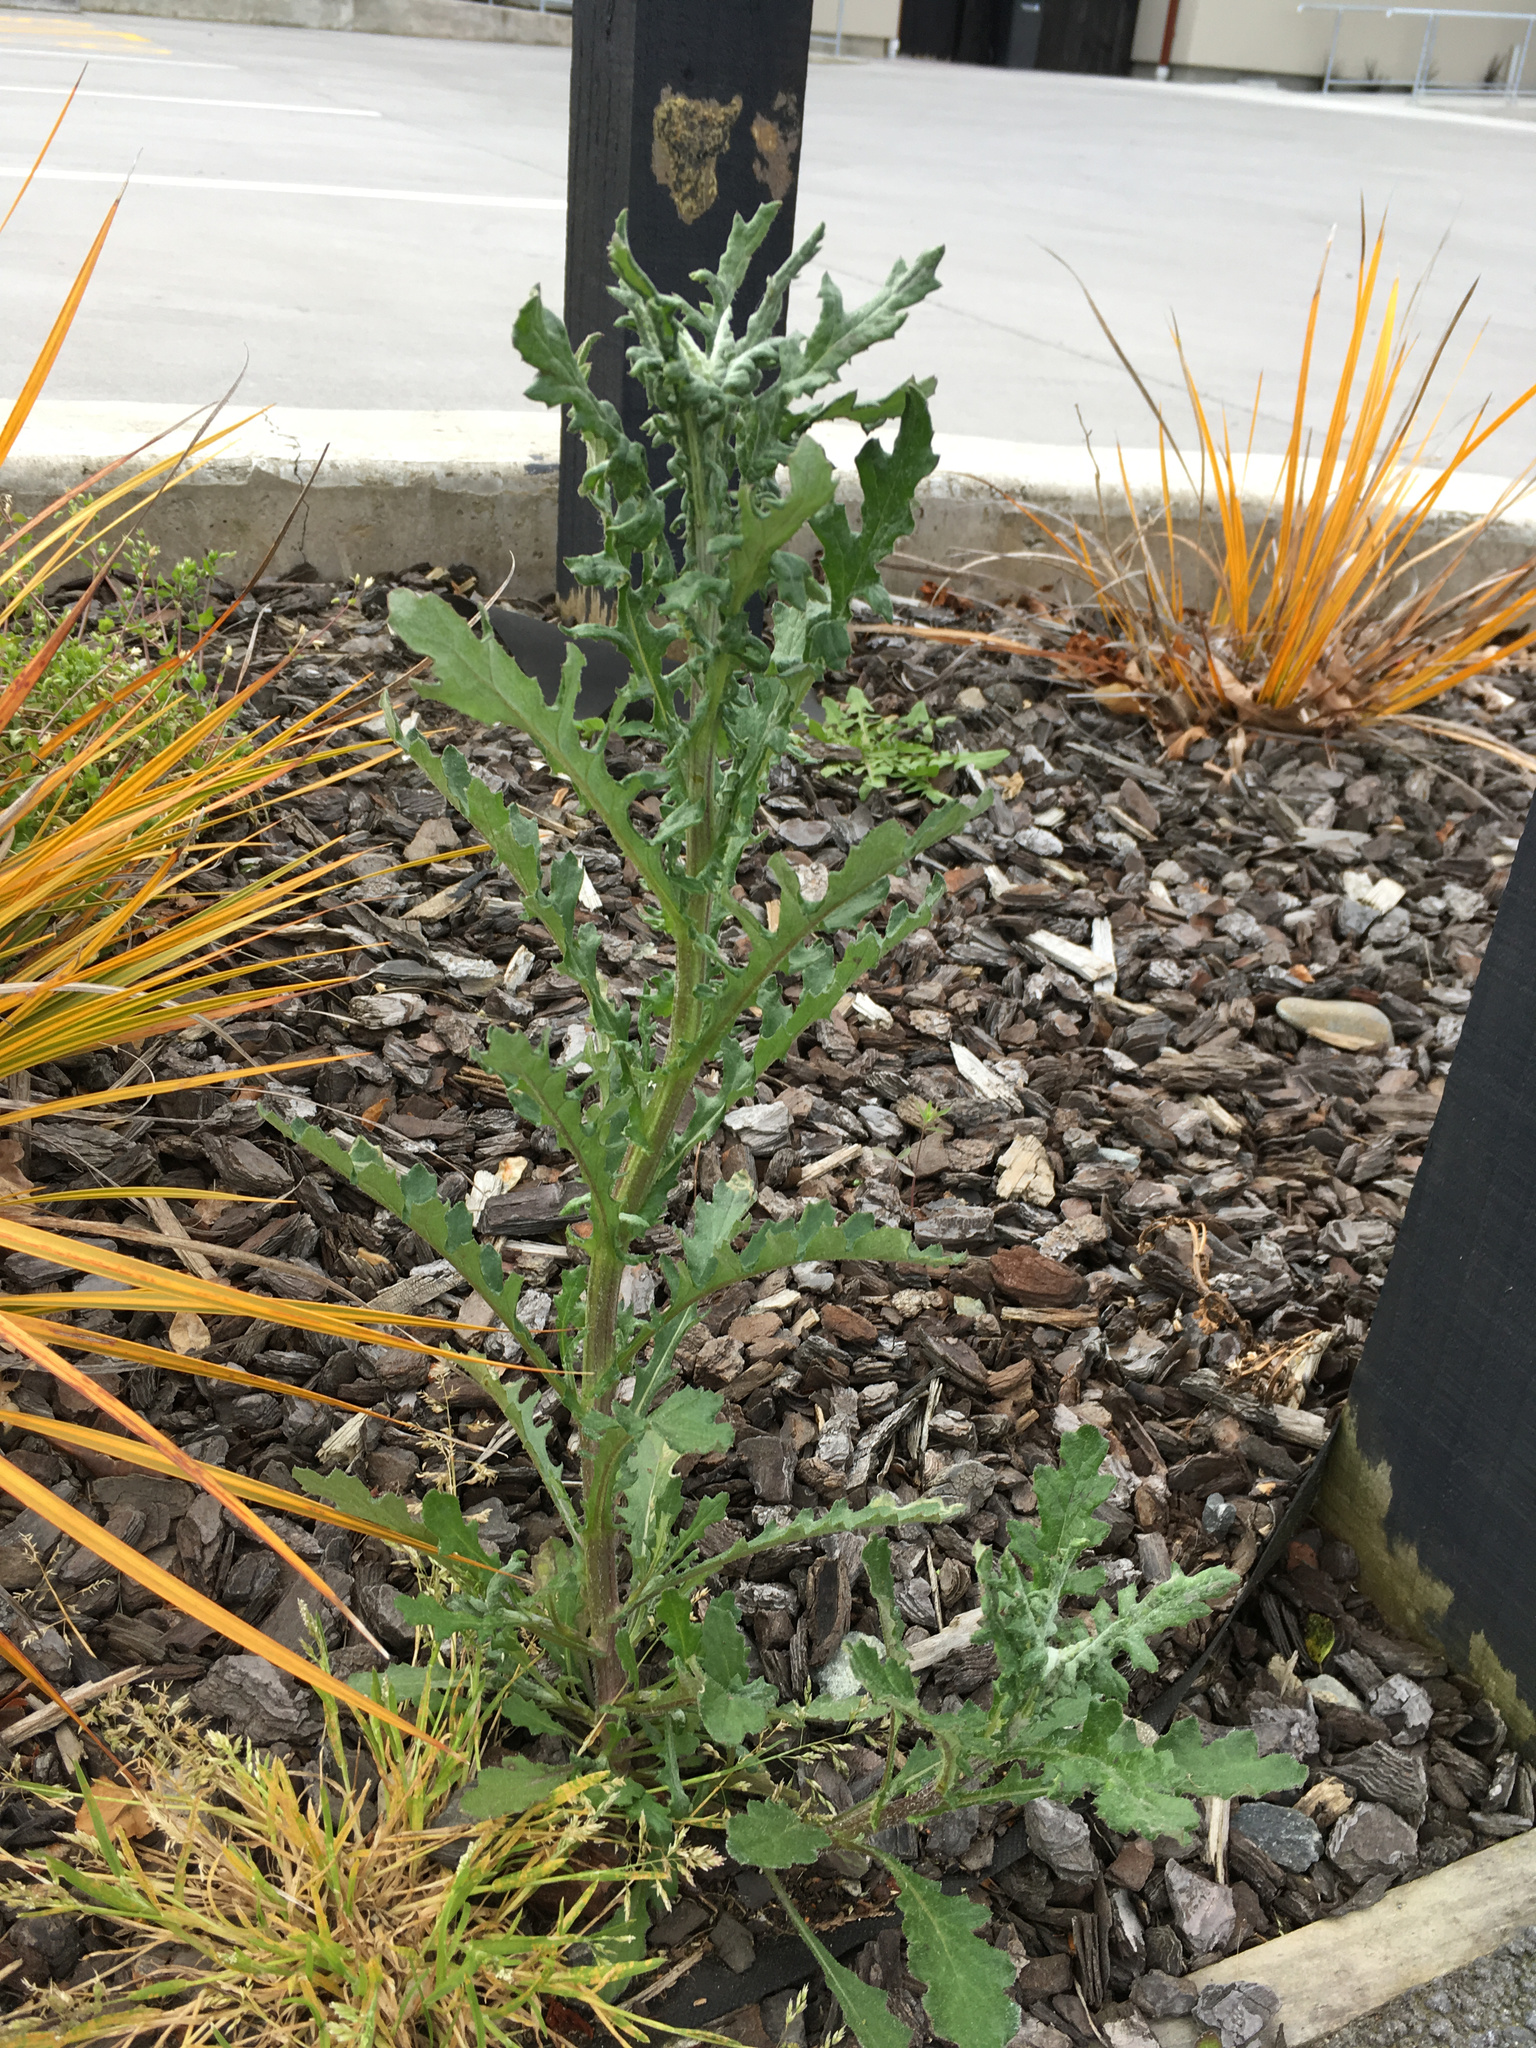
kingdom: Plantae
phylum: Tracheophyta
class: Magnoliopsida
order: Asterales
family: Asteraceae
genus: Senecio
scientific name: Senecio glomeratus
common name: Cutleaf burnweed
